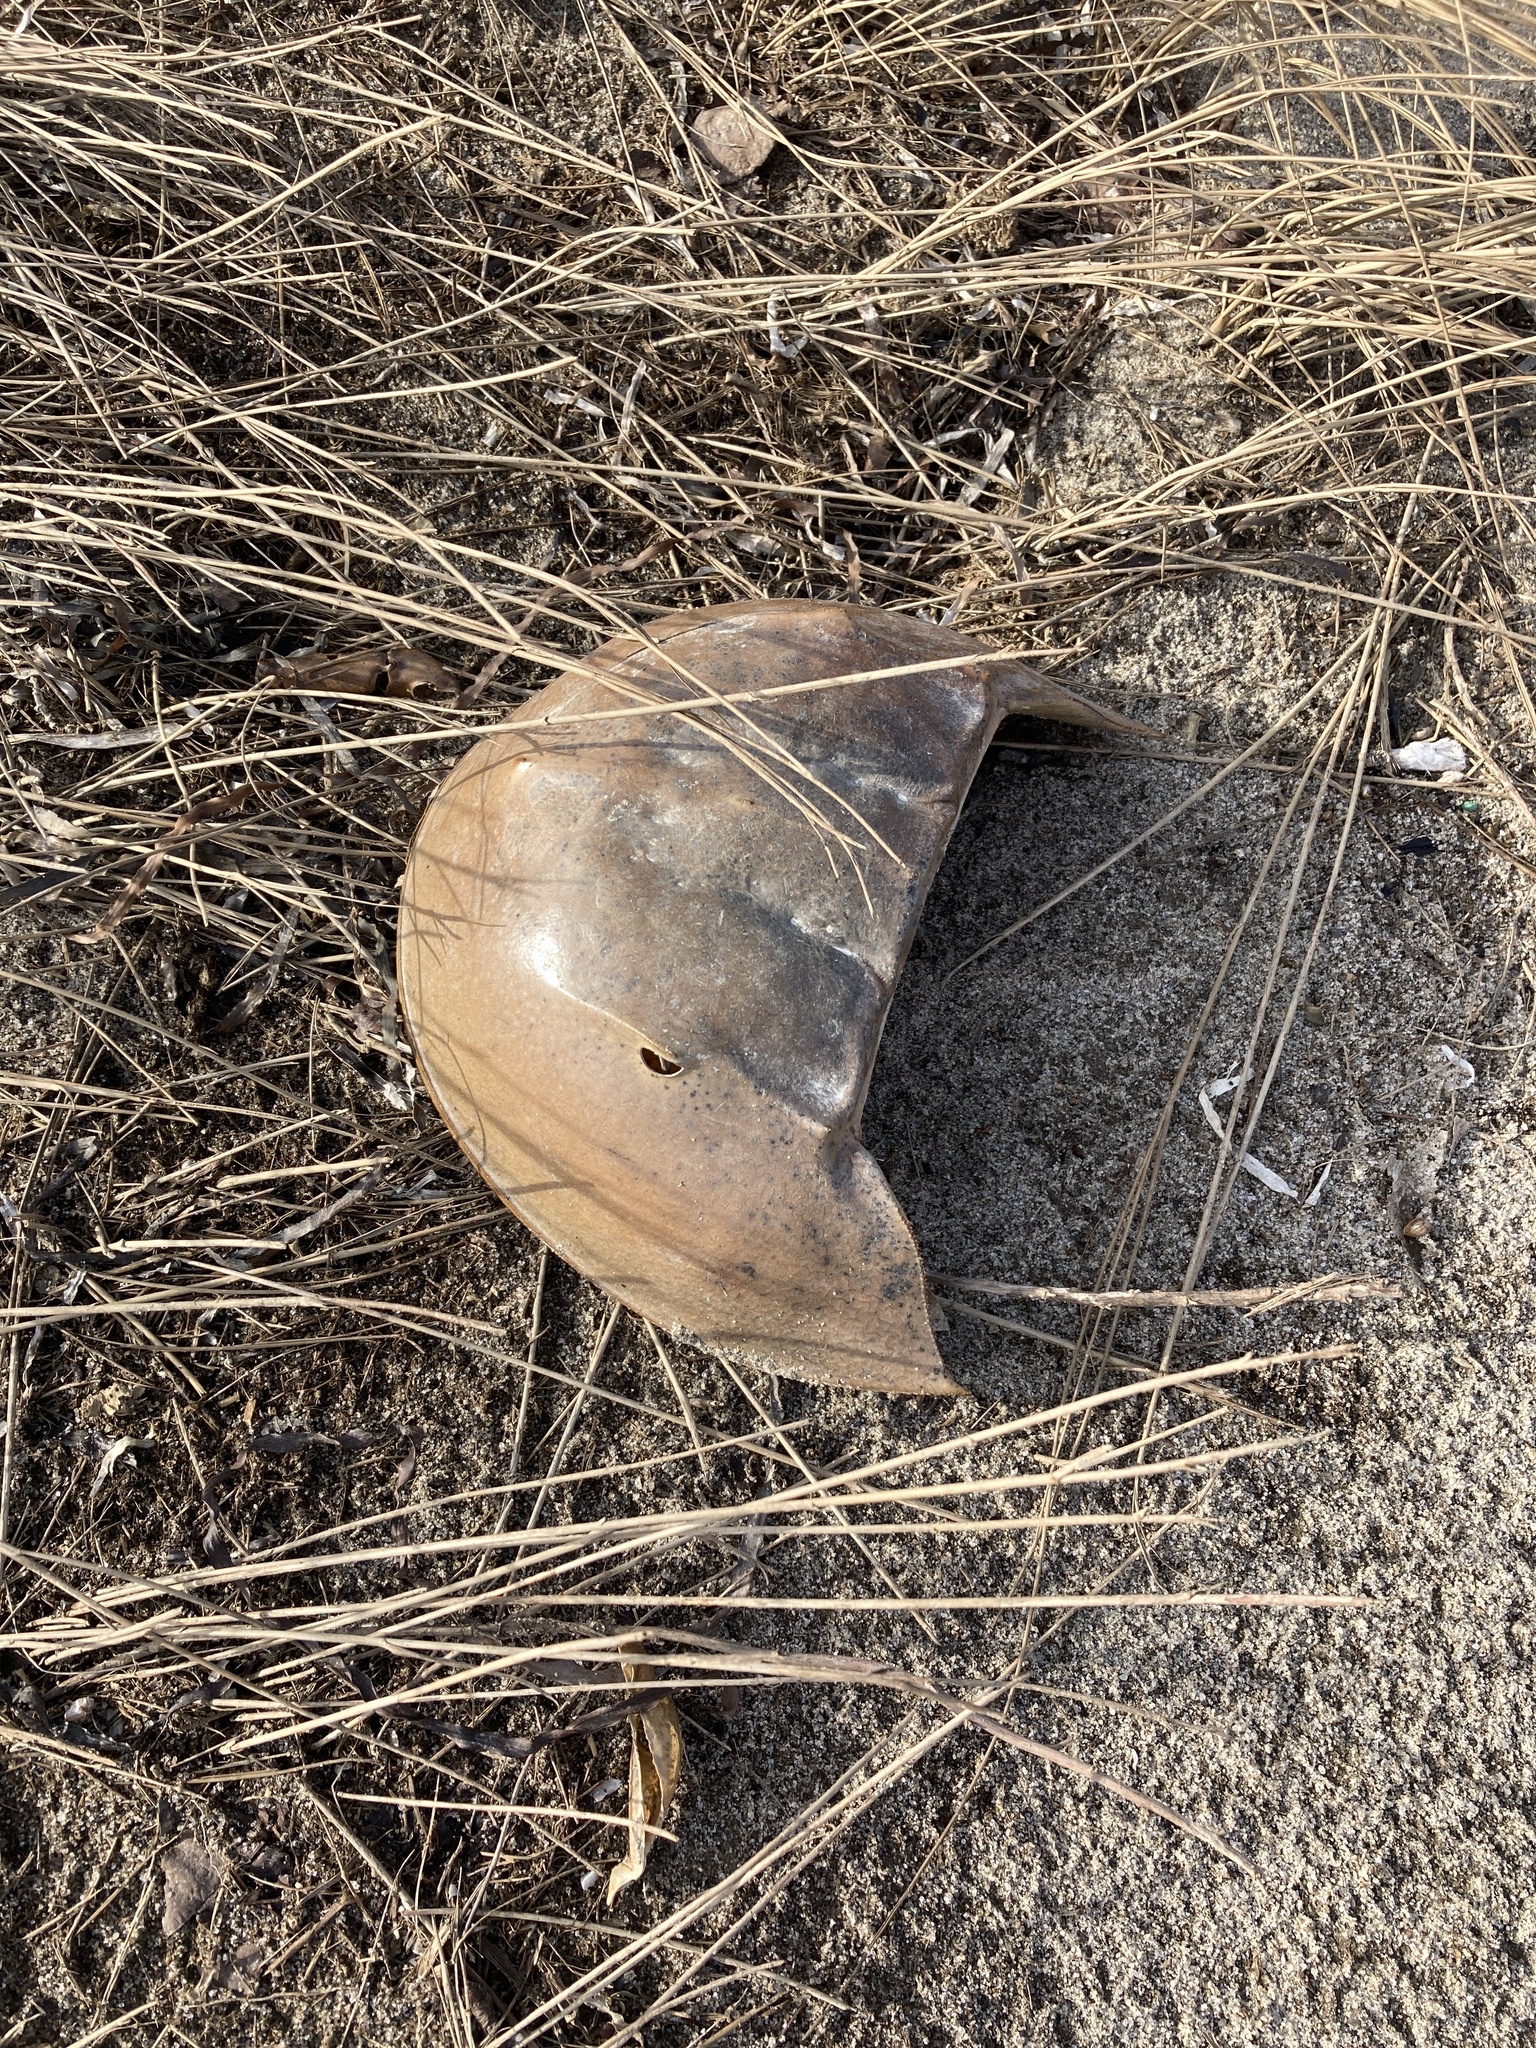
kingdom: Animalia
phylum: Arthropoda
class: Merostomata
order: Xiphosurida
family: Limulidae
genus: Limulus
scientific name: Limulus polyphemus
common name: Horseshoe crab
